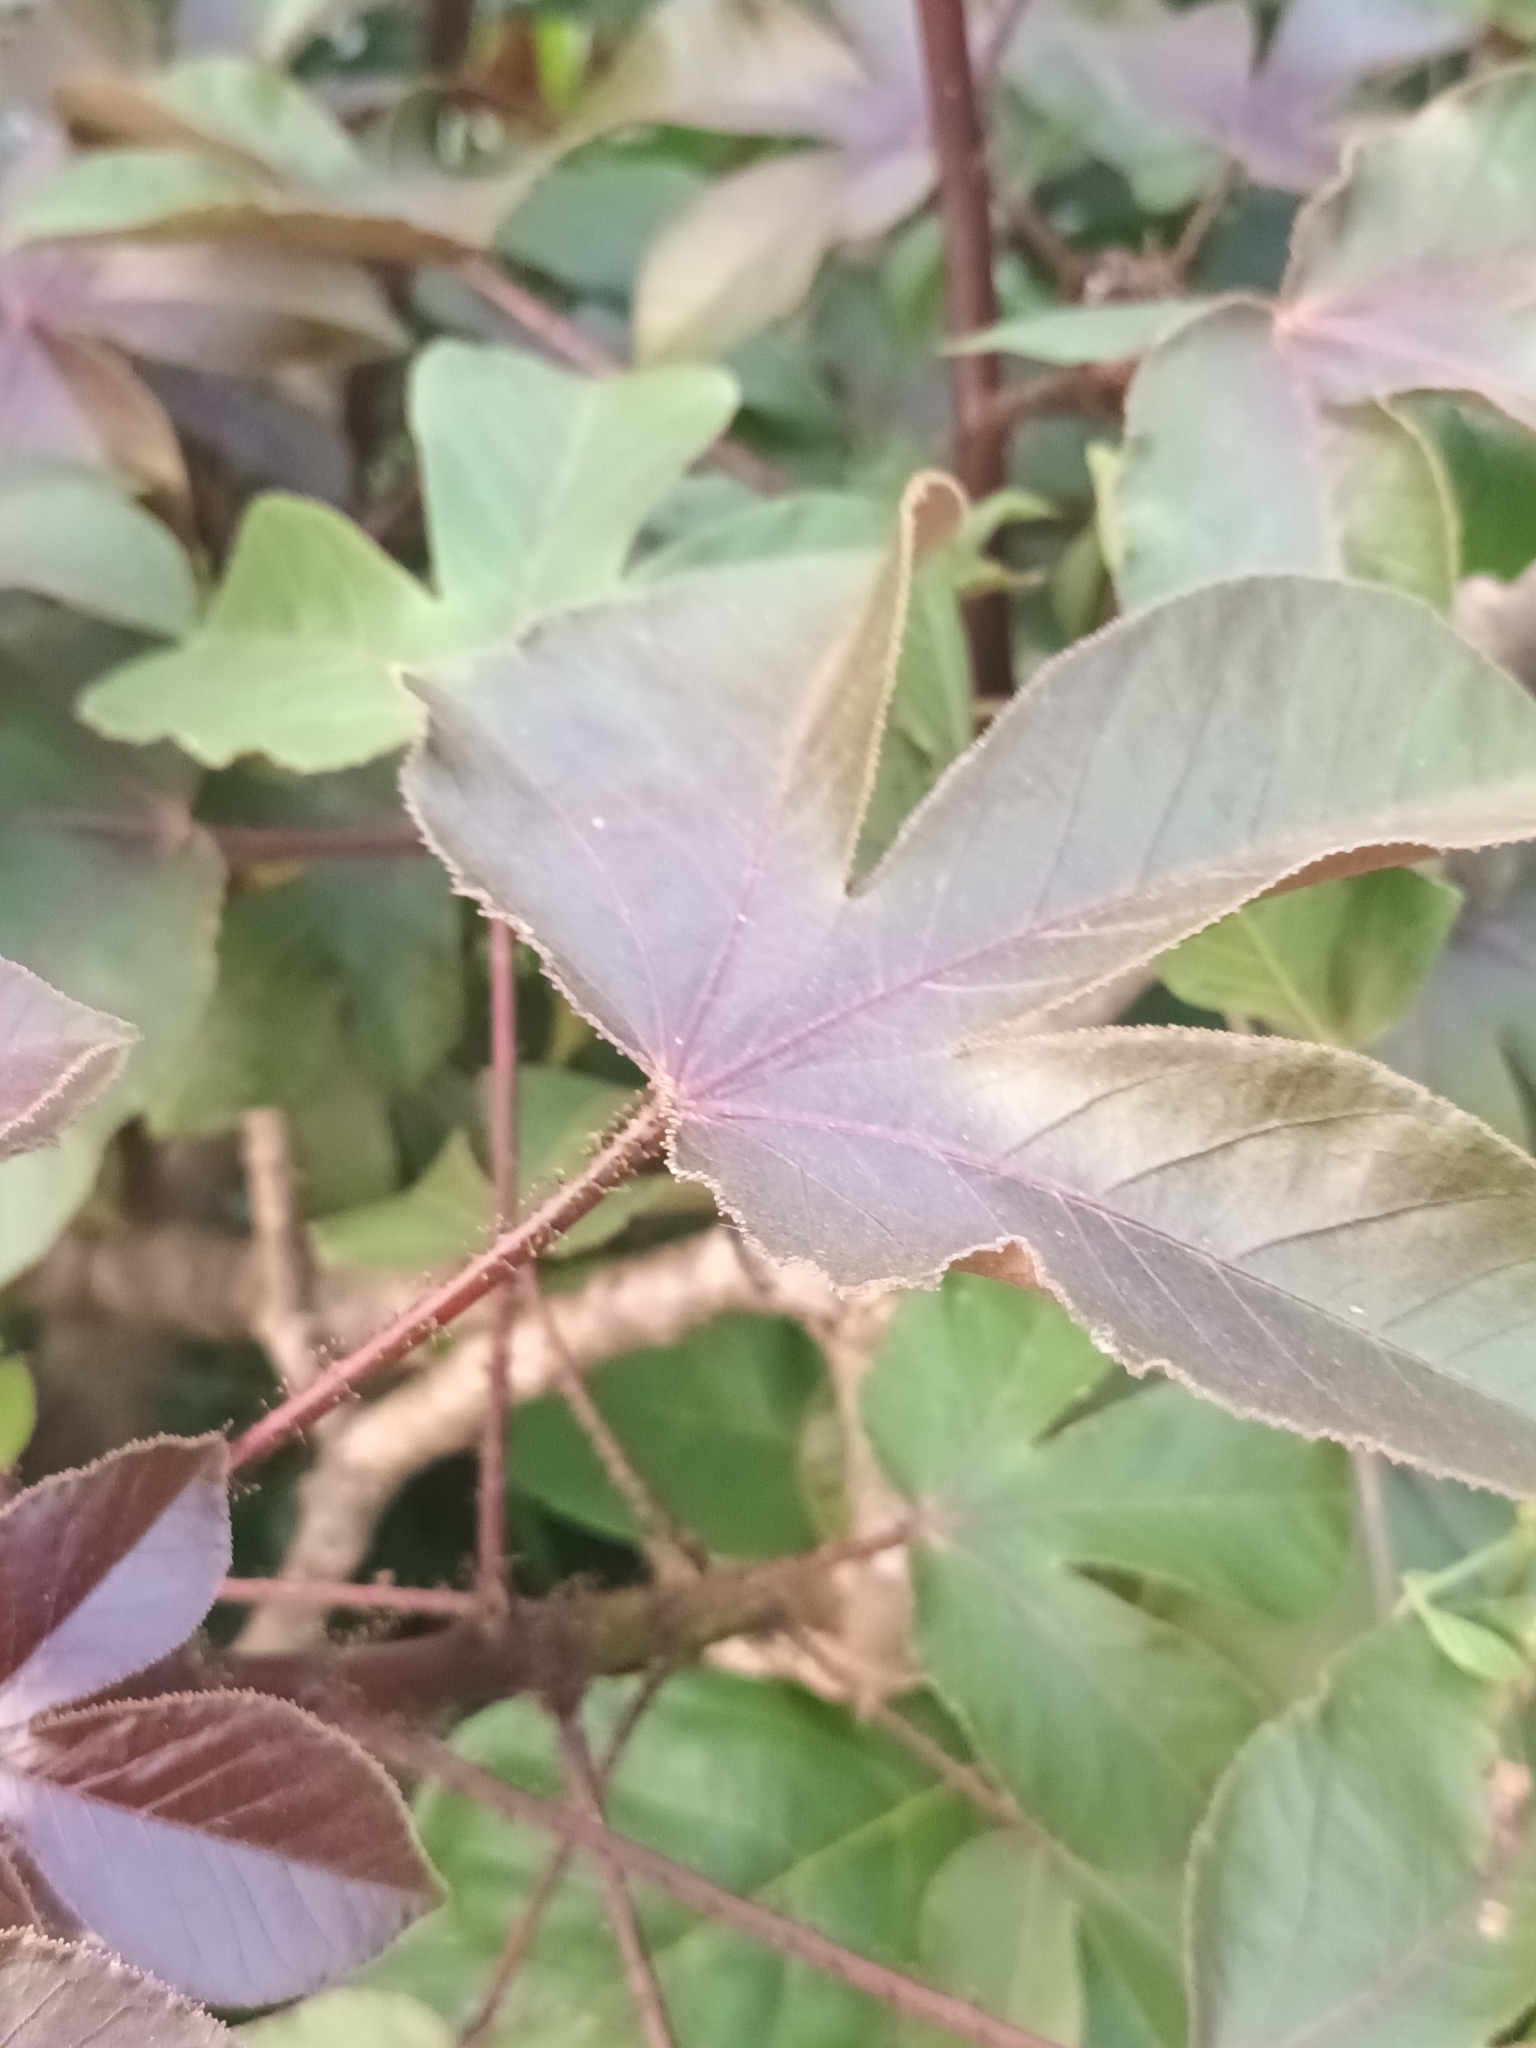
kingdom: Plantae
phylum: Tracheophyta
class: Magnoliopsida
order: Malpighiales
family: Euphorbiaceae
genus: Jatropha
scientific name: Jatropha gossypiifolia
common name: Bellyache bush
